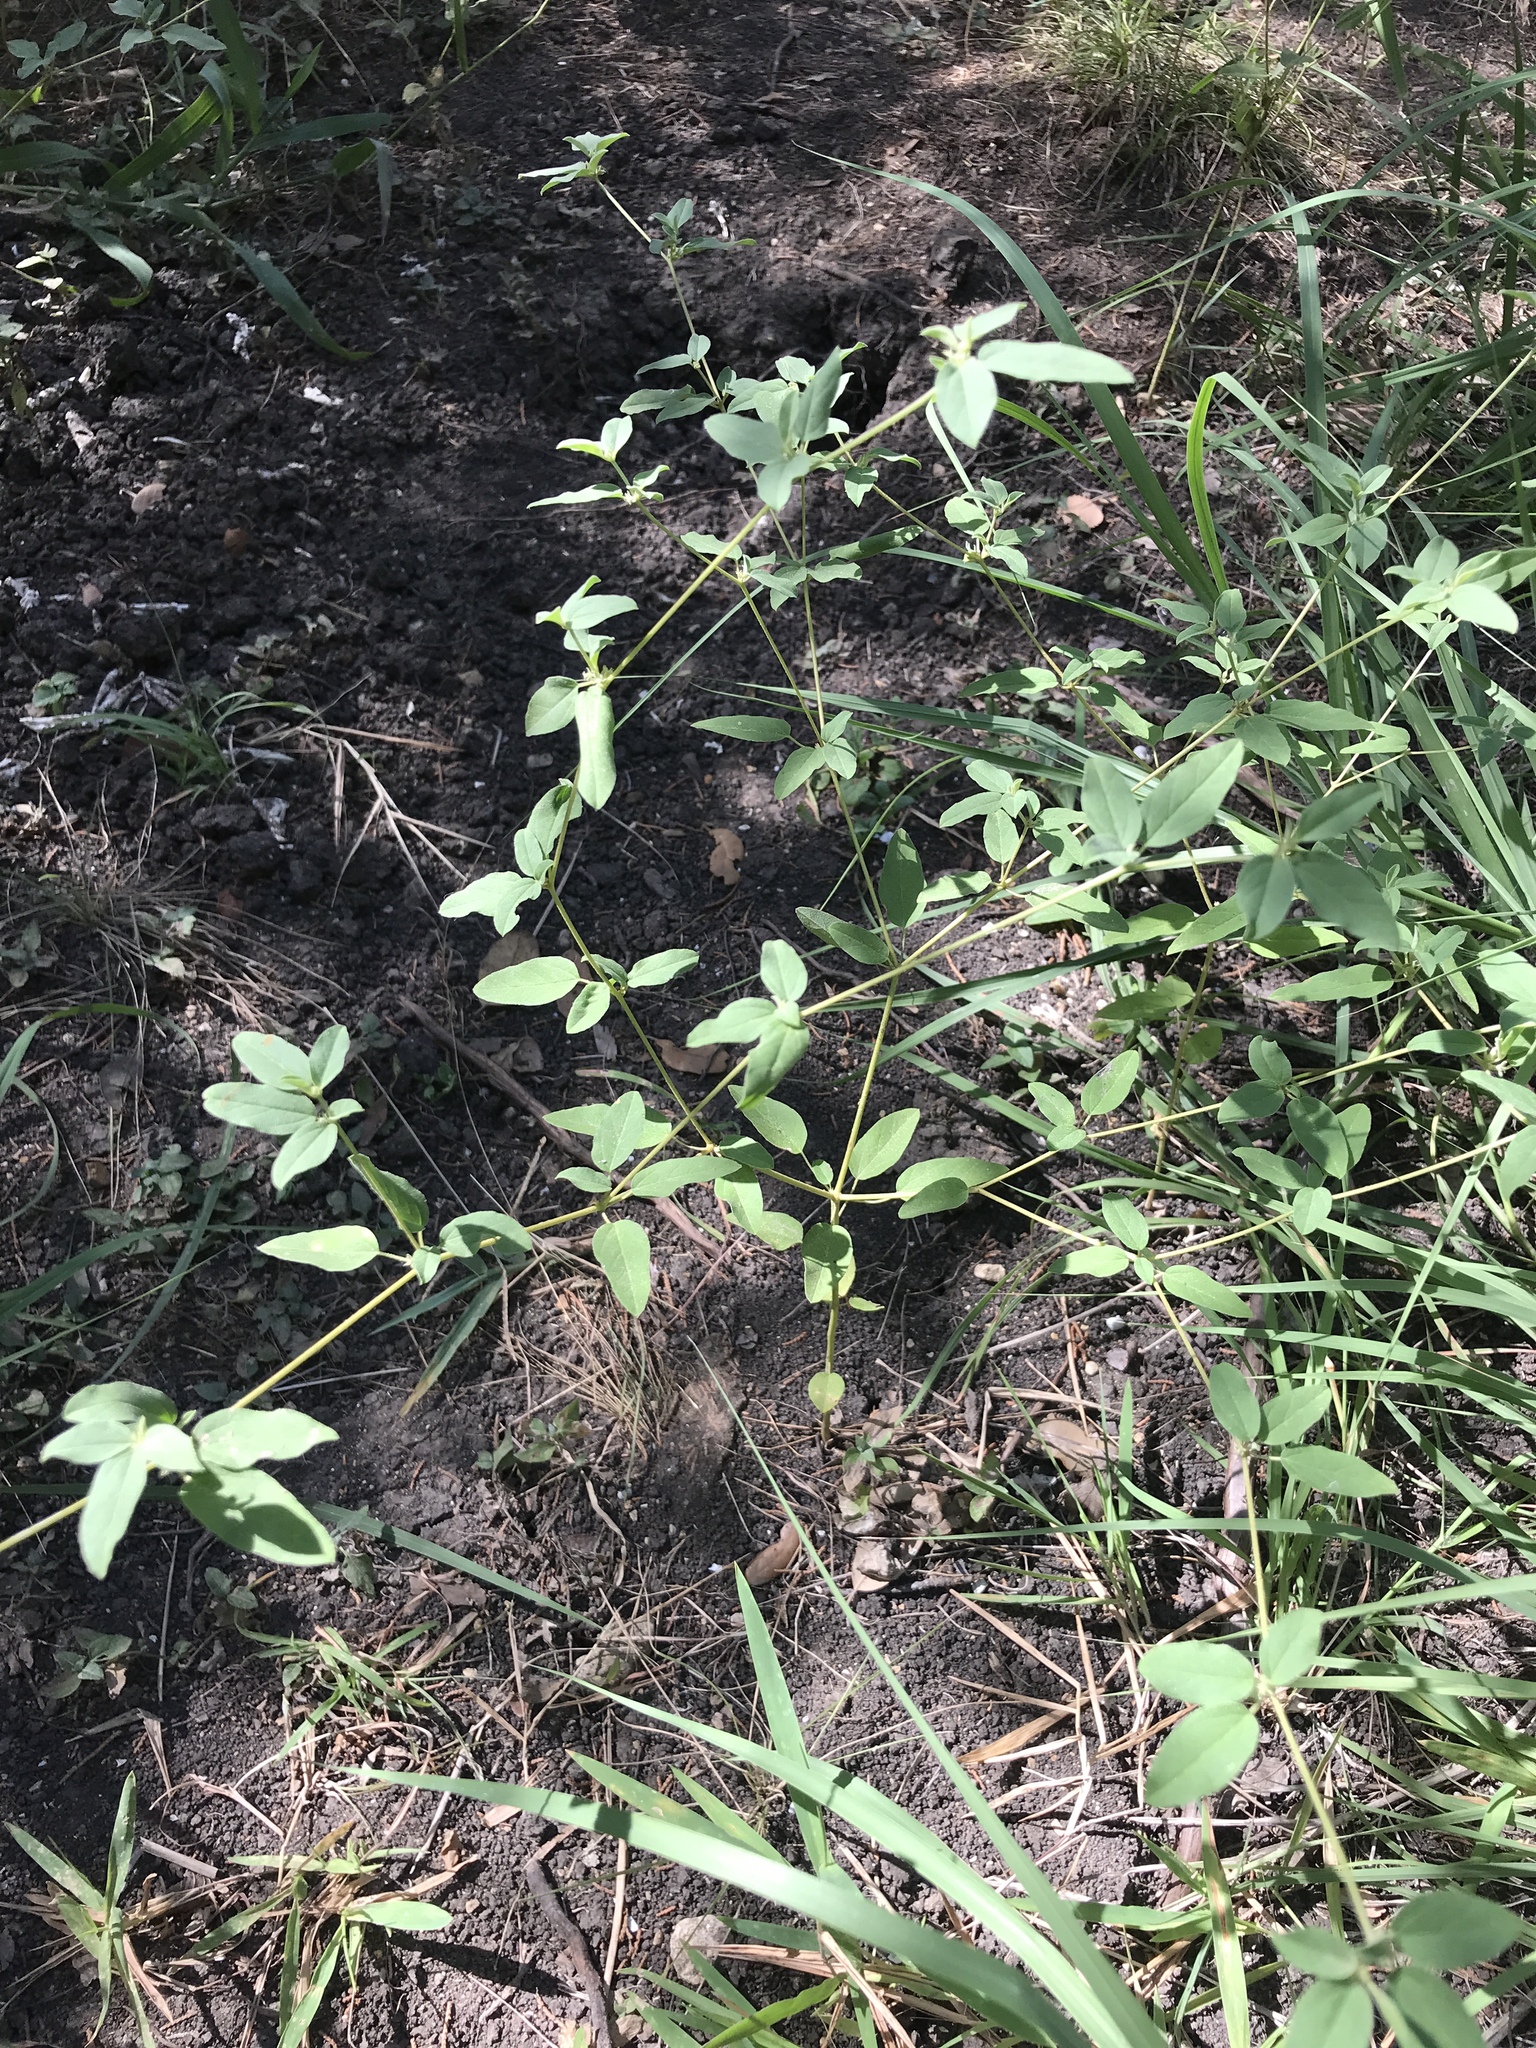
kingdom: Plantae
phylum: Tracheophyta
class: Magnoliopsida
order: Malpighiales
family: Euphorbiaceae
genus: Croton
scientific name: Croton monanthogynus
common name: One-seed croton
